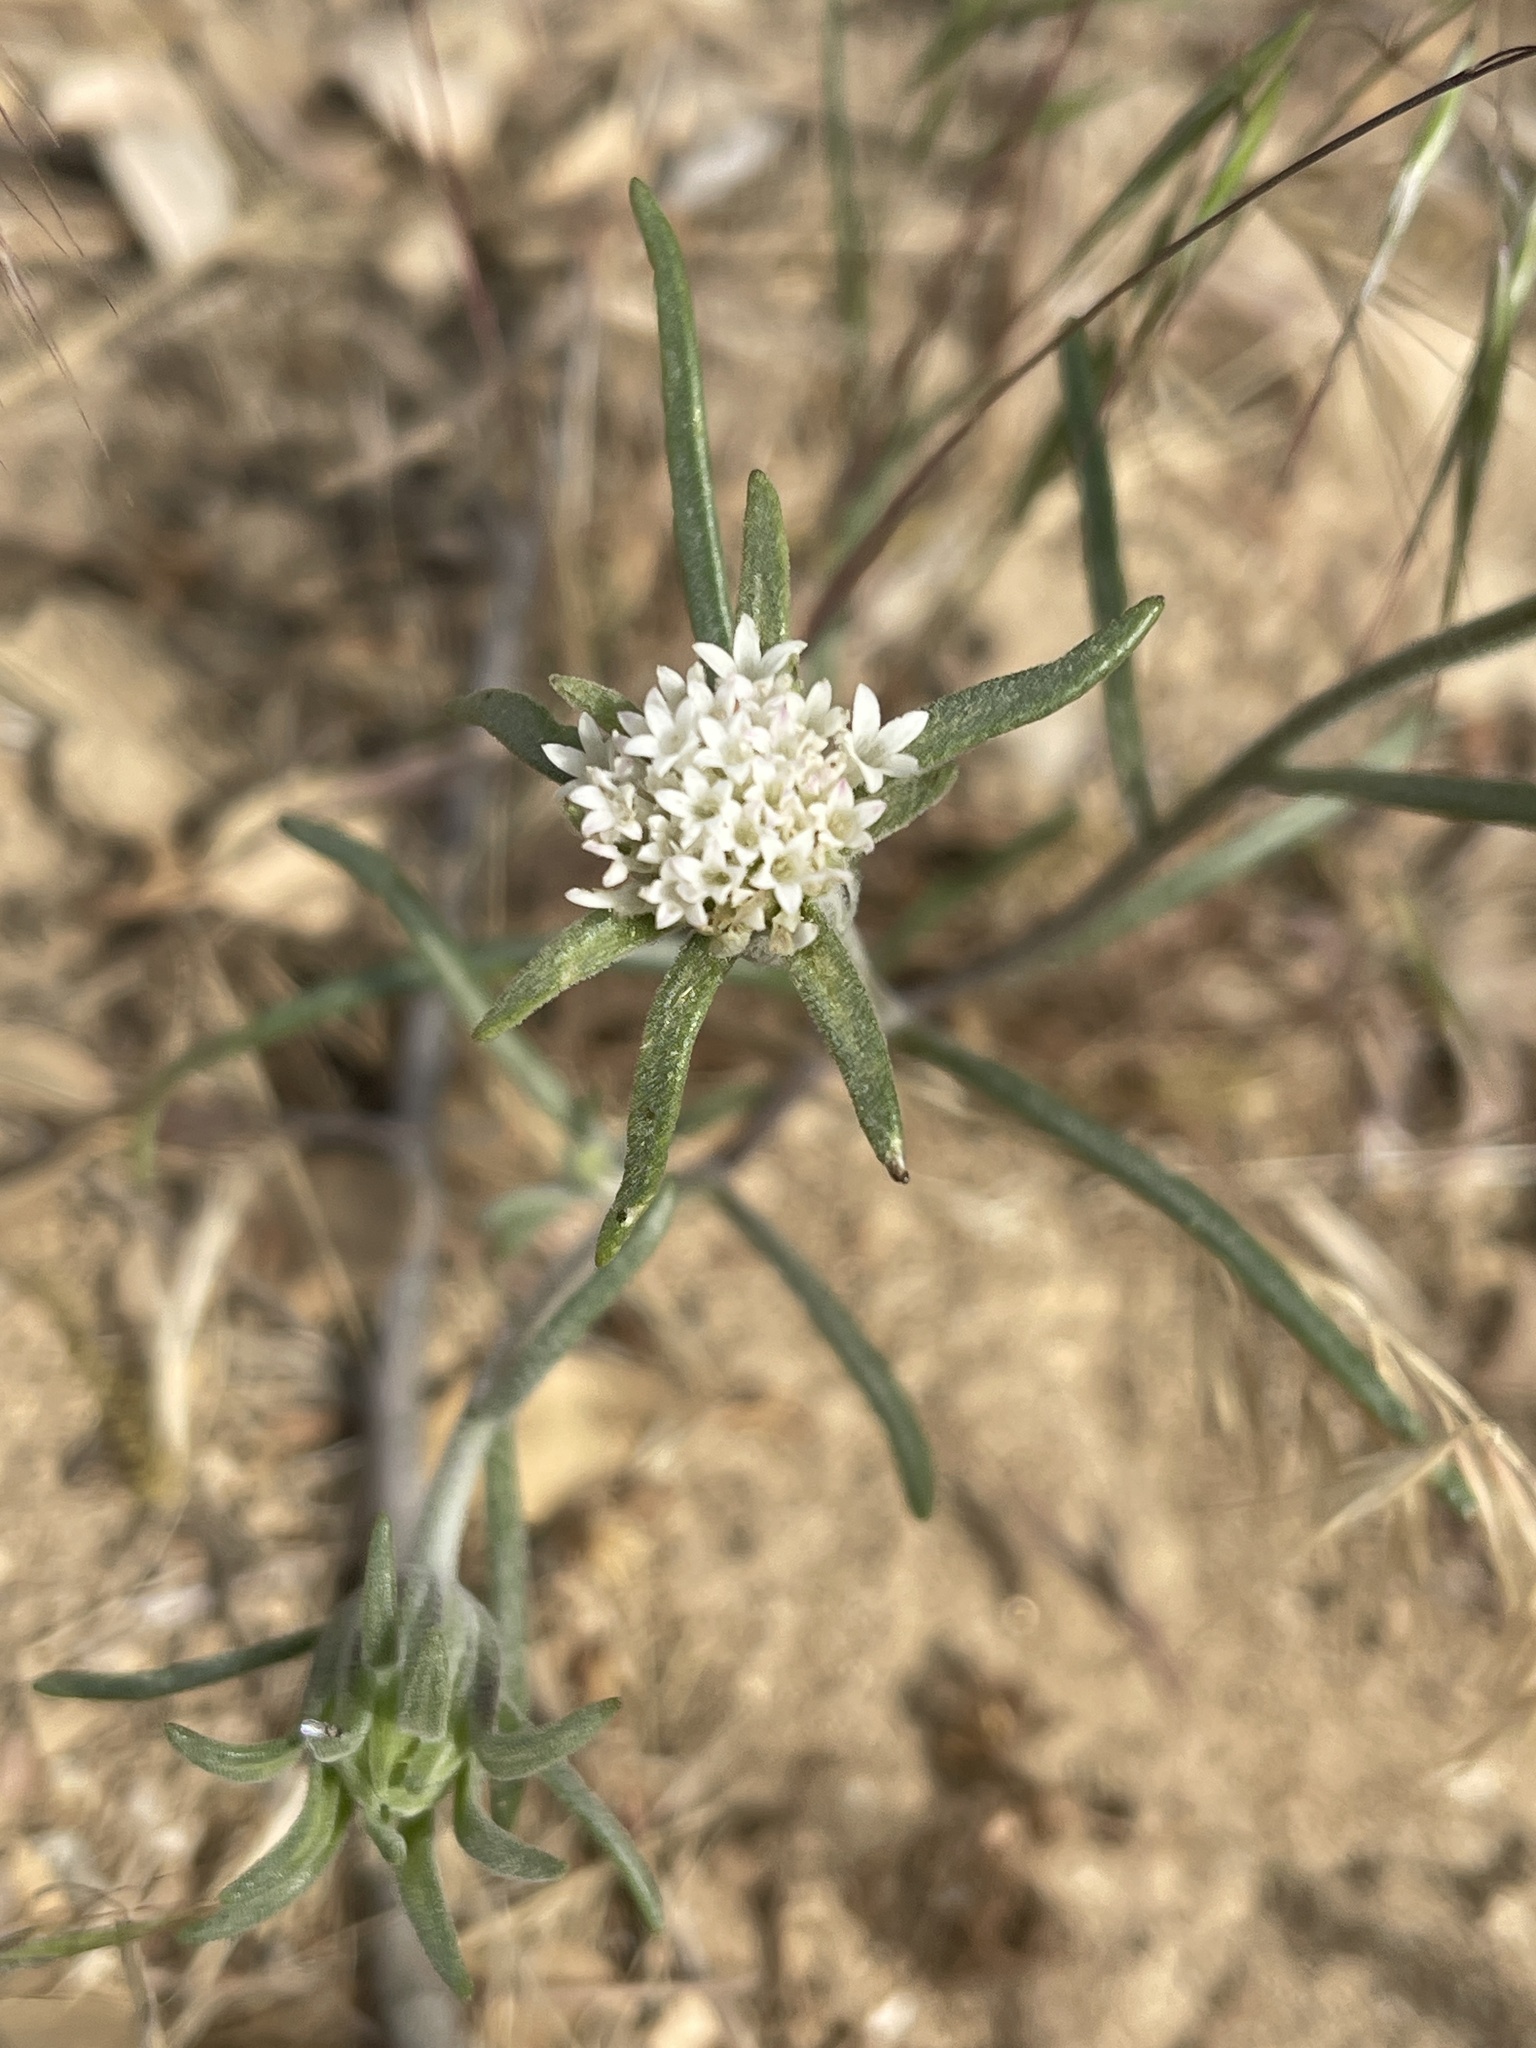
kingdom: Plantae
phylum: Tracheophyta
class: Magnoliopsida
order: Asterales
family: Asteraceae
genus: Chaenactis
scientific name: Chaenactis xantiana
